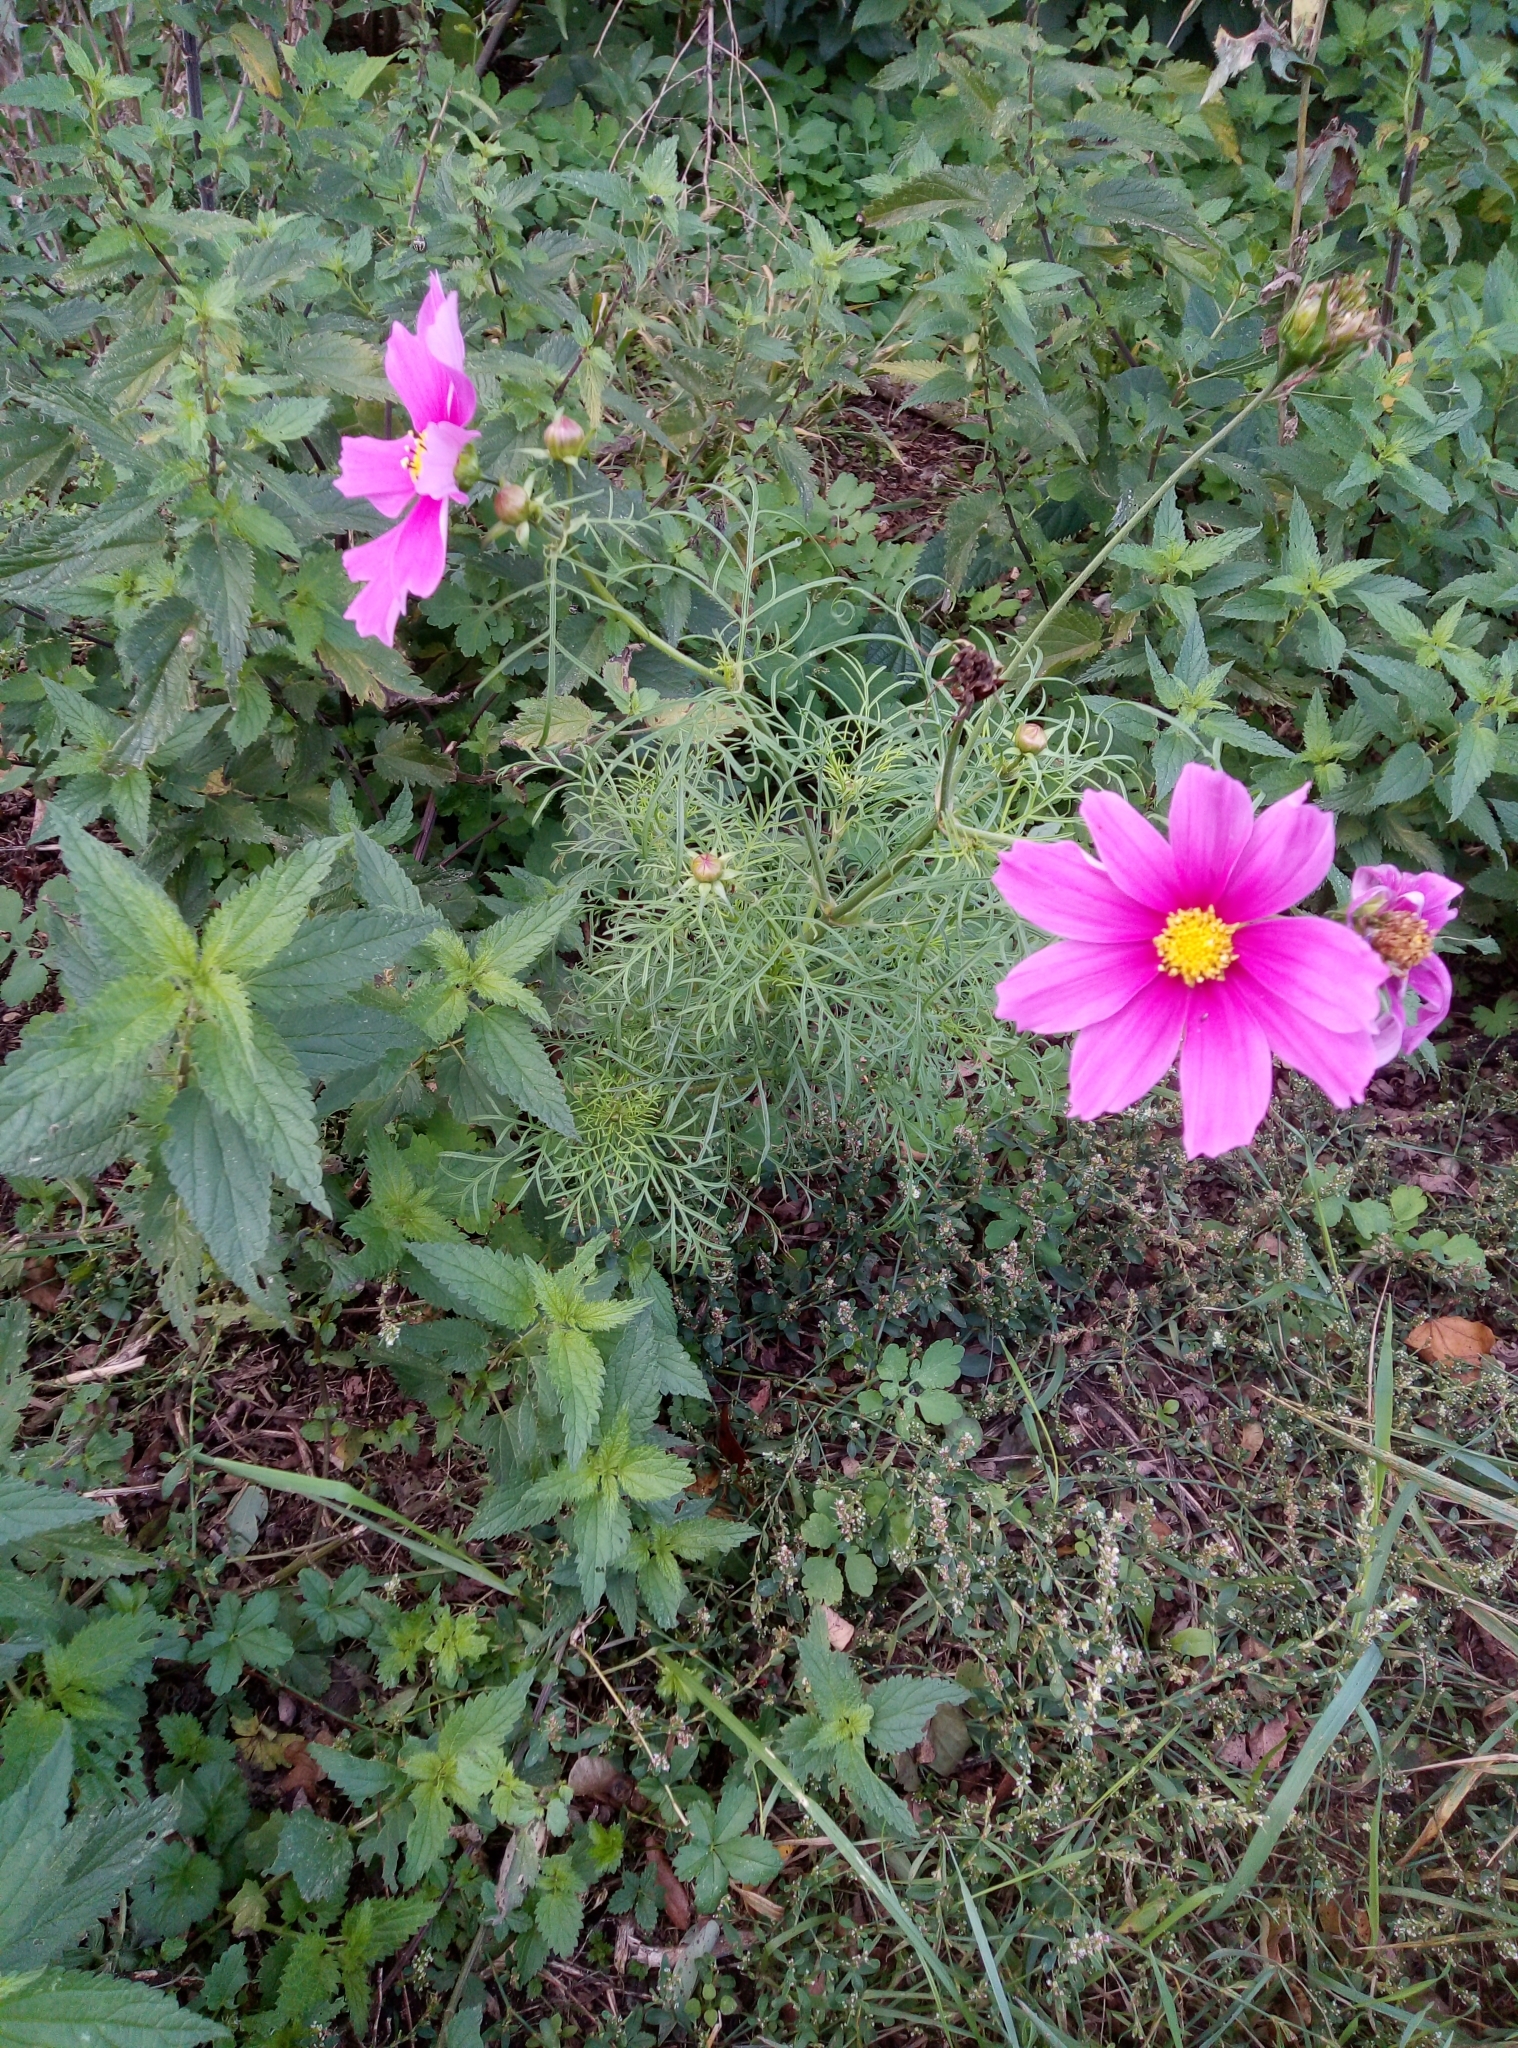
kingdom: Plantae
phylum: Tracheophyta
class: Magnoliopsida
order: Asterales
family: Asteraceae
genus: Cosmos
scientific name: Cosmos bipinnatus
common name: Garden cosmos
